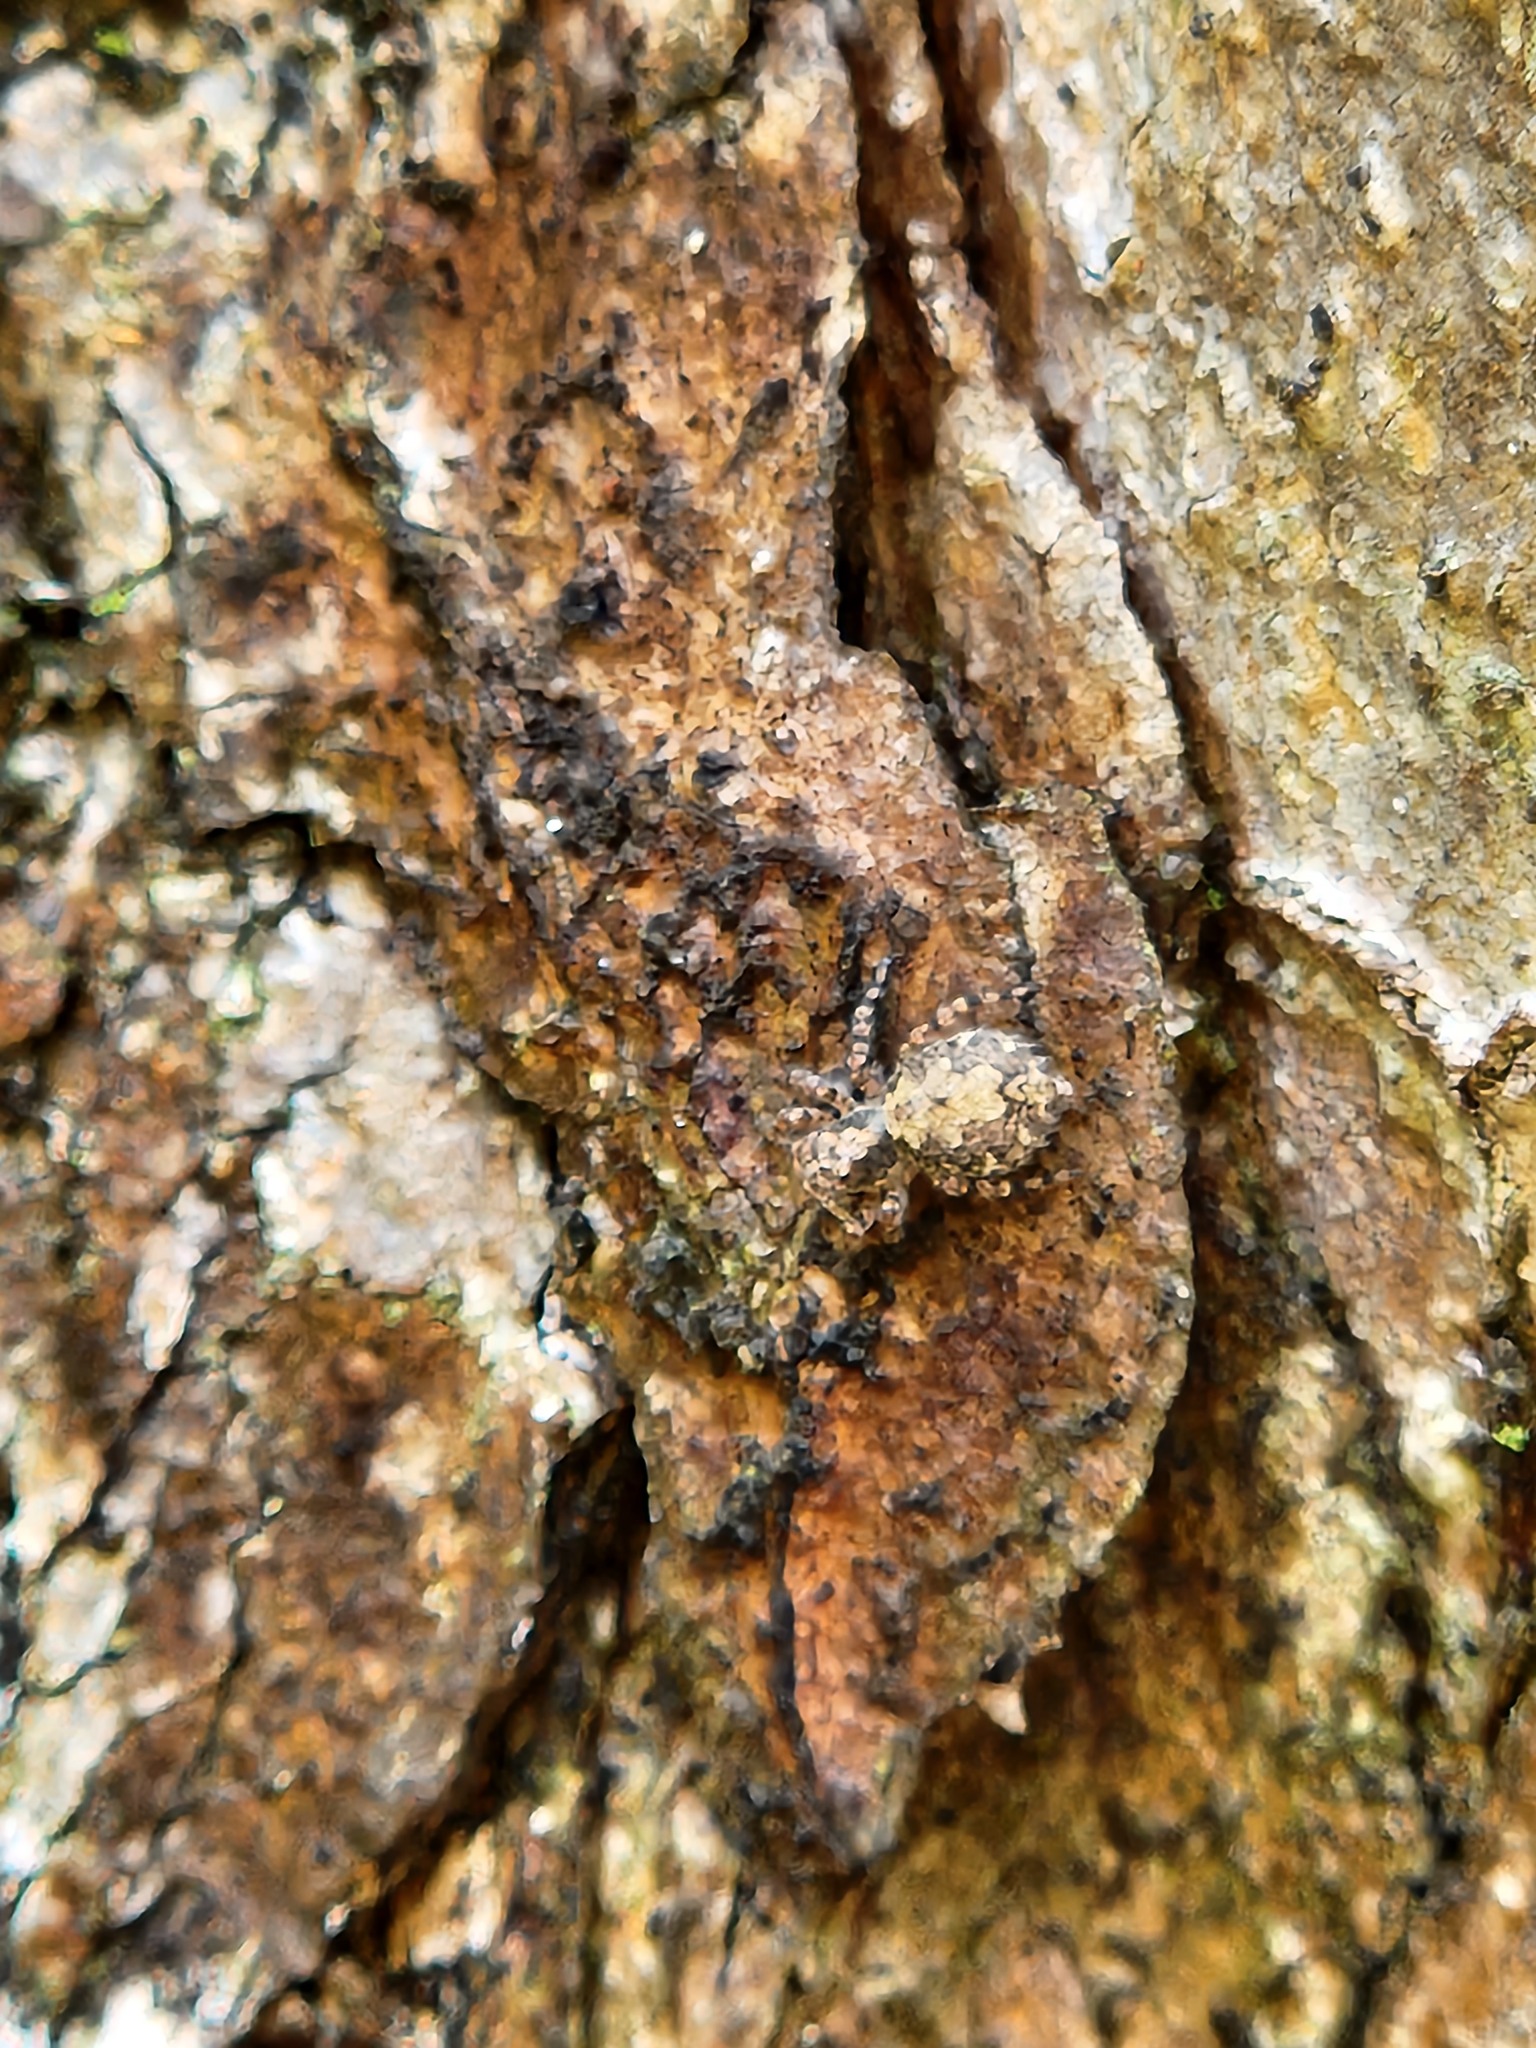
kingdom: Animalia
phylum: Arthropoda
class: Arachnida
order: Araneae
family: Salticidae
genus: Marma
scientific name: Marma nigritarsis
